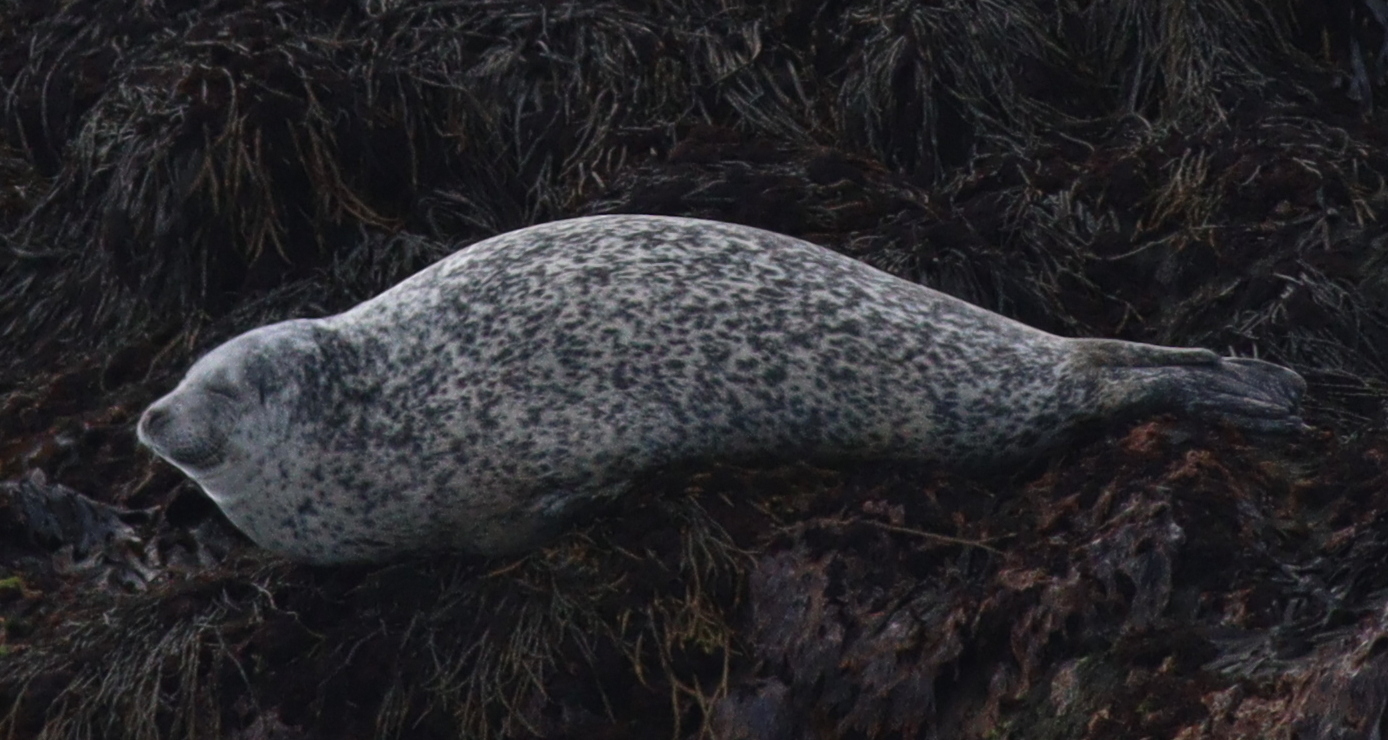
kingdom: Animalia
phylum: Chordata
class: Mammalia
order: Carnivora
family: Phocidae
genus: Phoca
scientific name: Phoca vitulina
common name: Harbor seal
